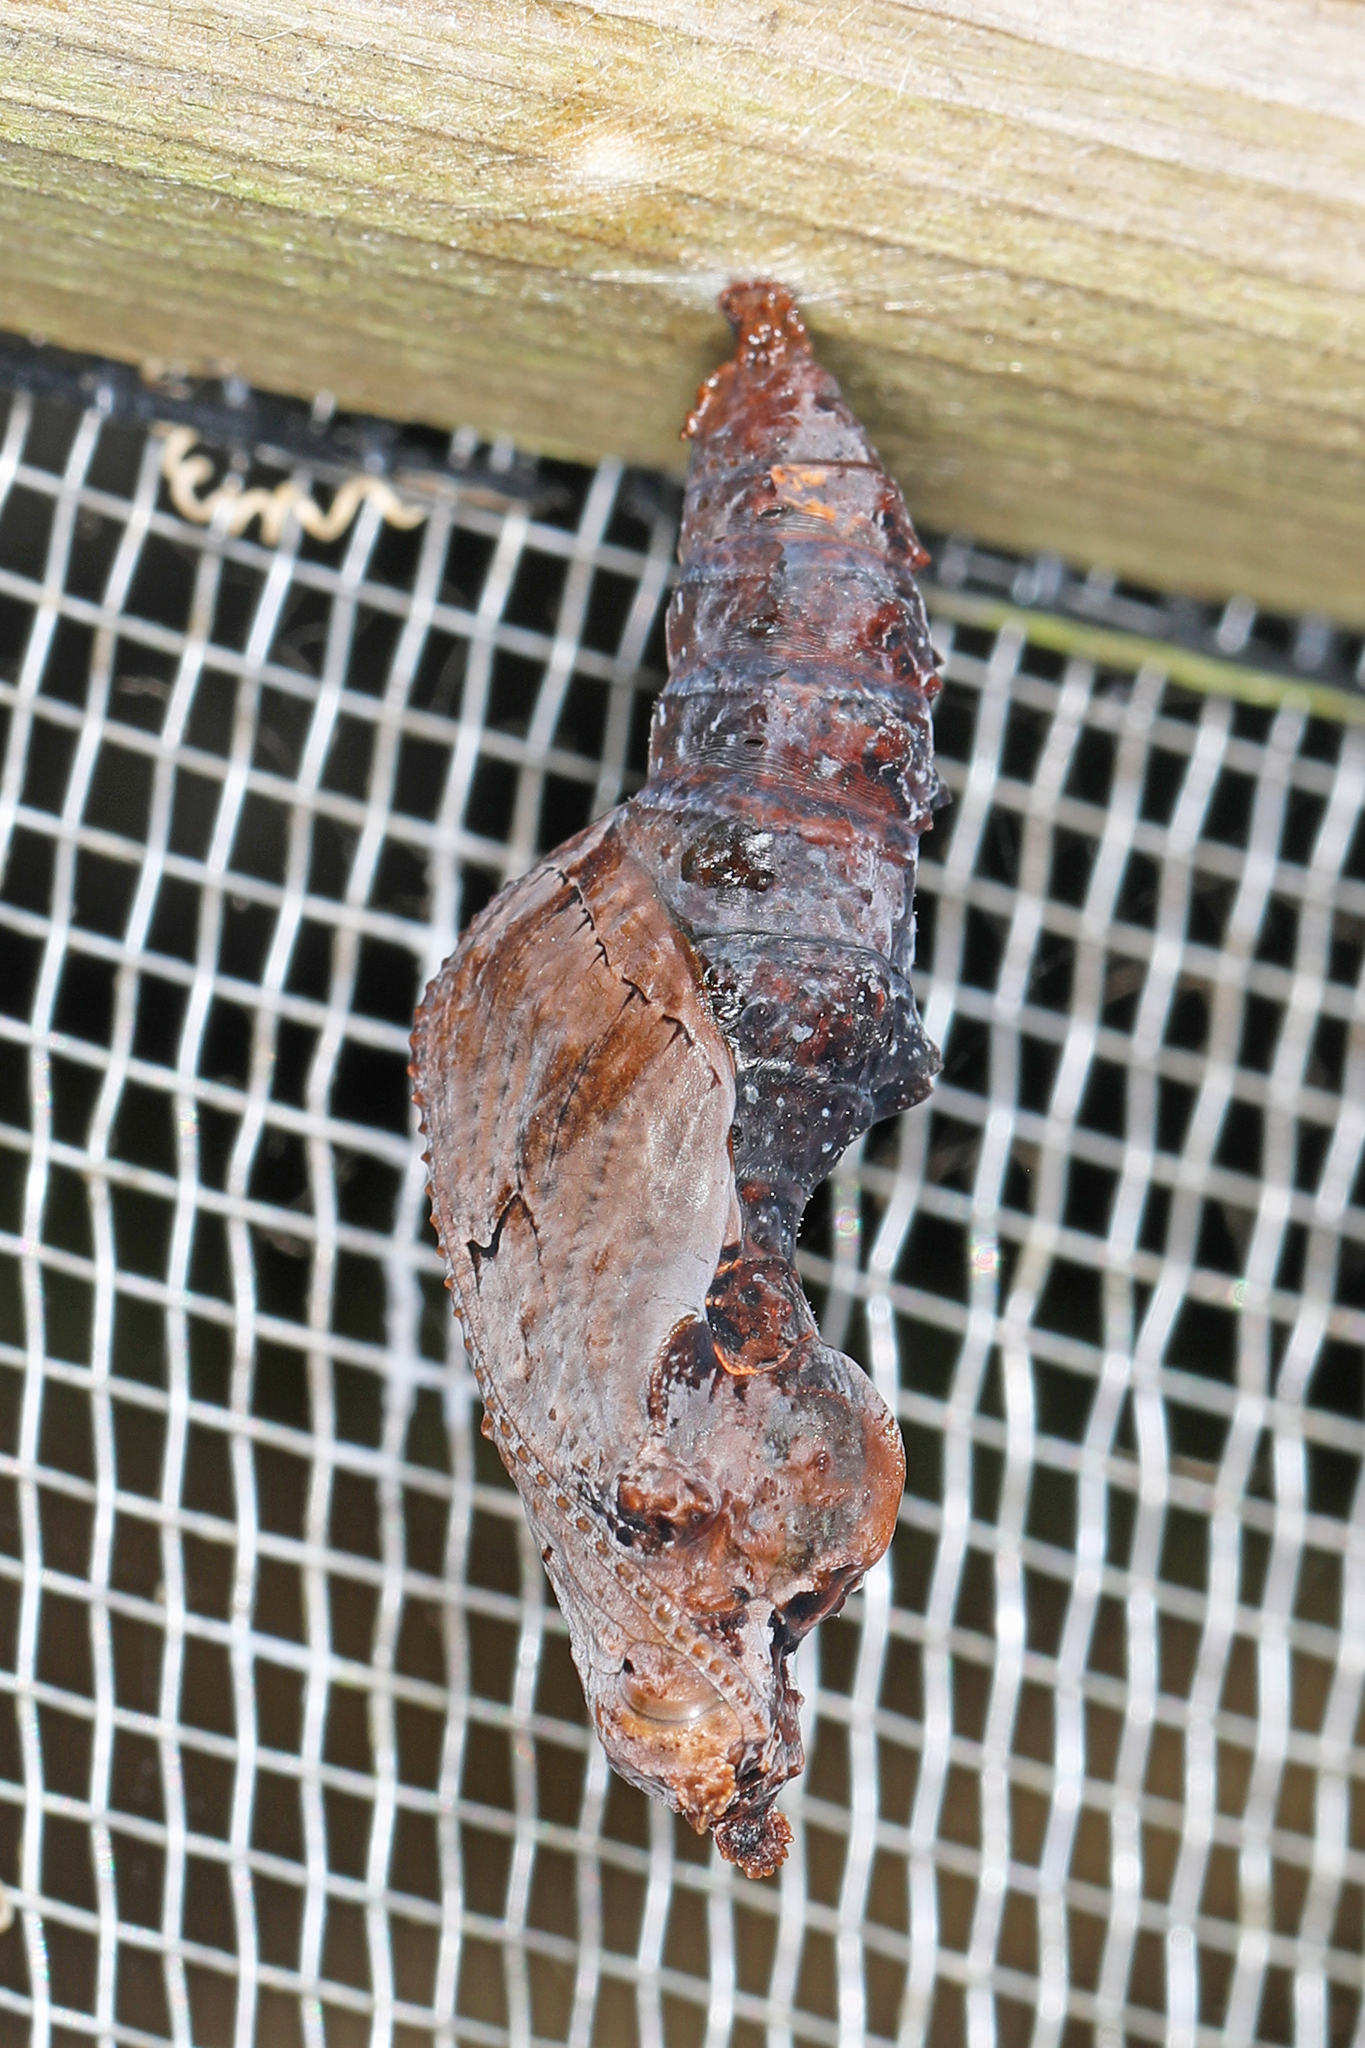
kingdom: Animalia
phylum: Arthropoda
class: Insecta
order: Lepidoptera
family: Nymphalidae
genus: Dione
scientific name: Dione vanillae
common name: Gulf fritillary
